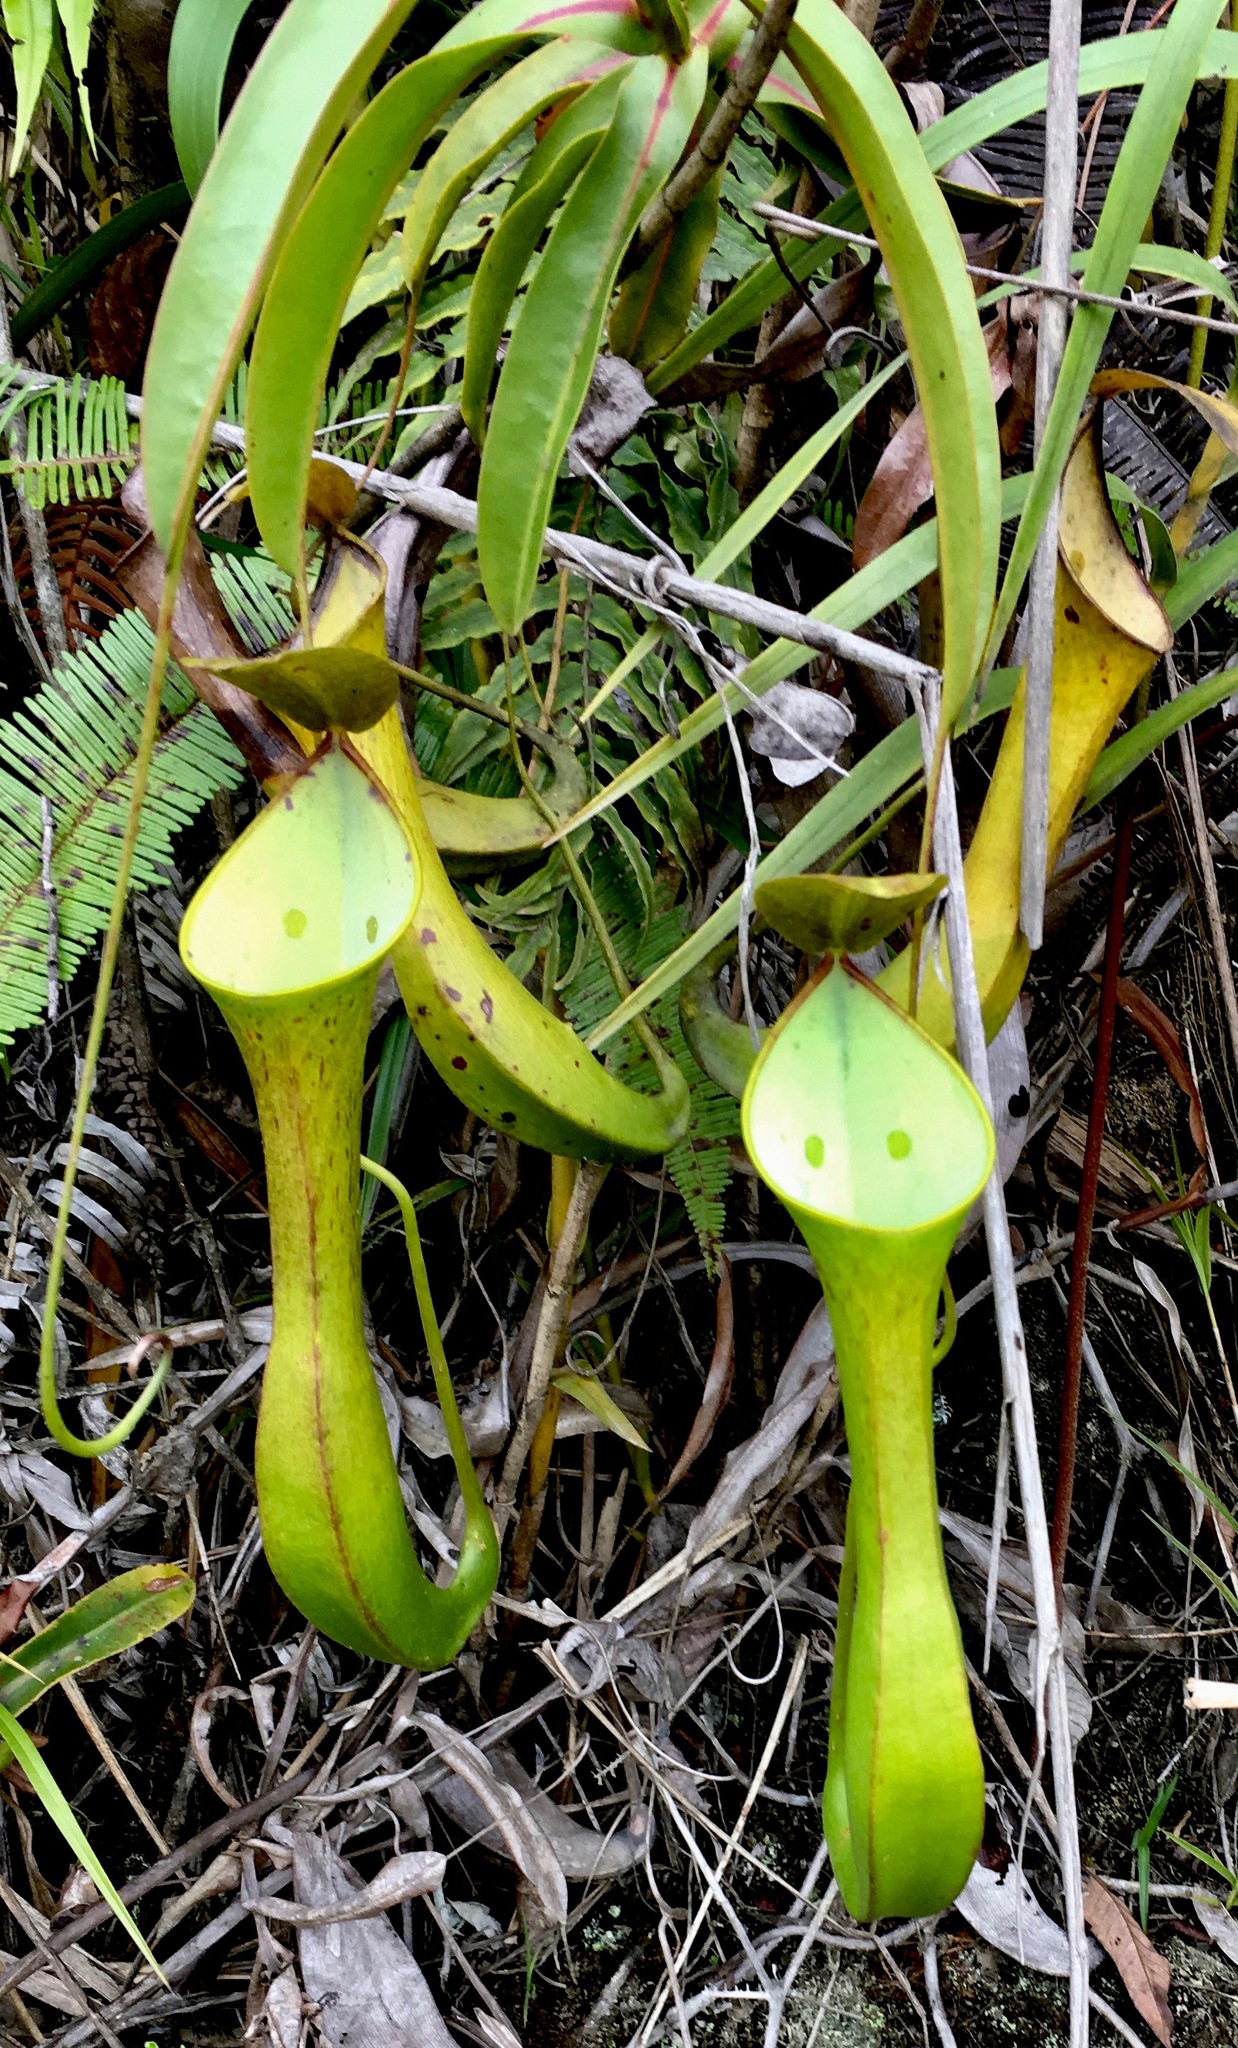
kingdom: Plantae
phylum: Tracheophyta
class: Magnoliopsida
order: Caryophyllales
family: Nepenthaceae
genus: Nepenthes
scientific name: Nepenthes reinwardtiana
